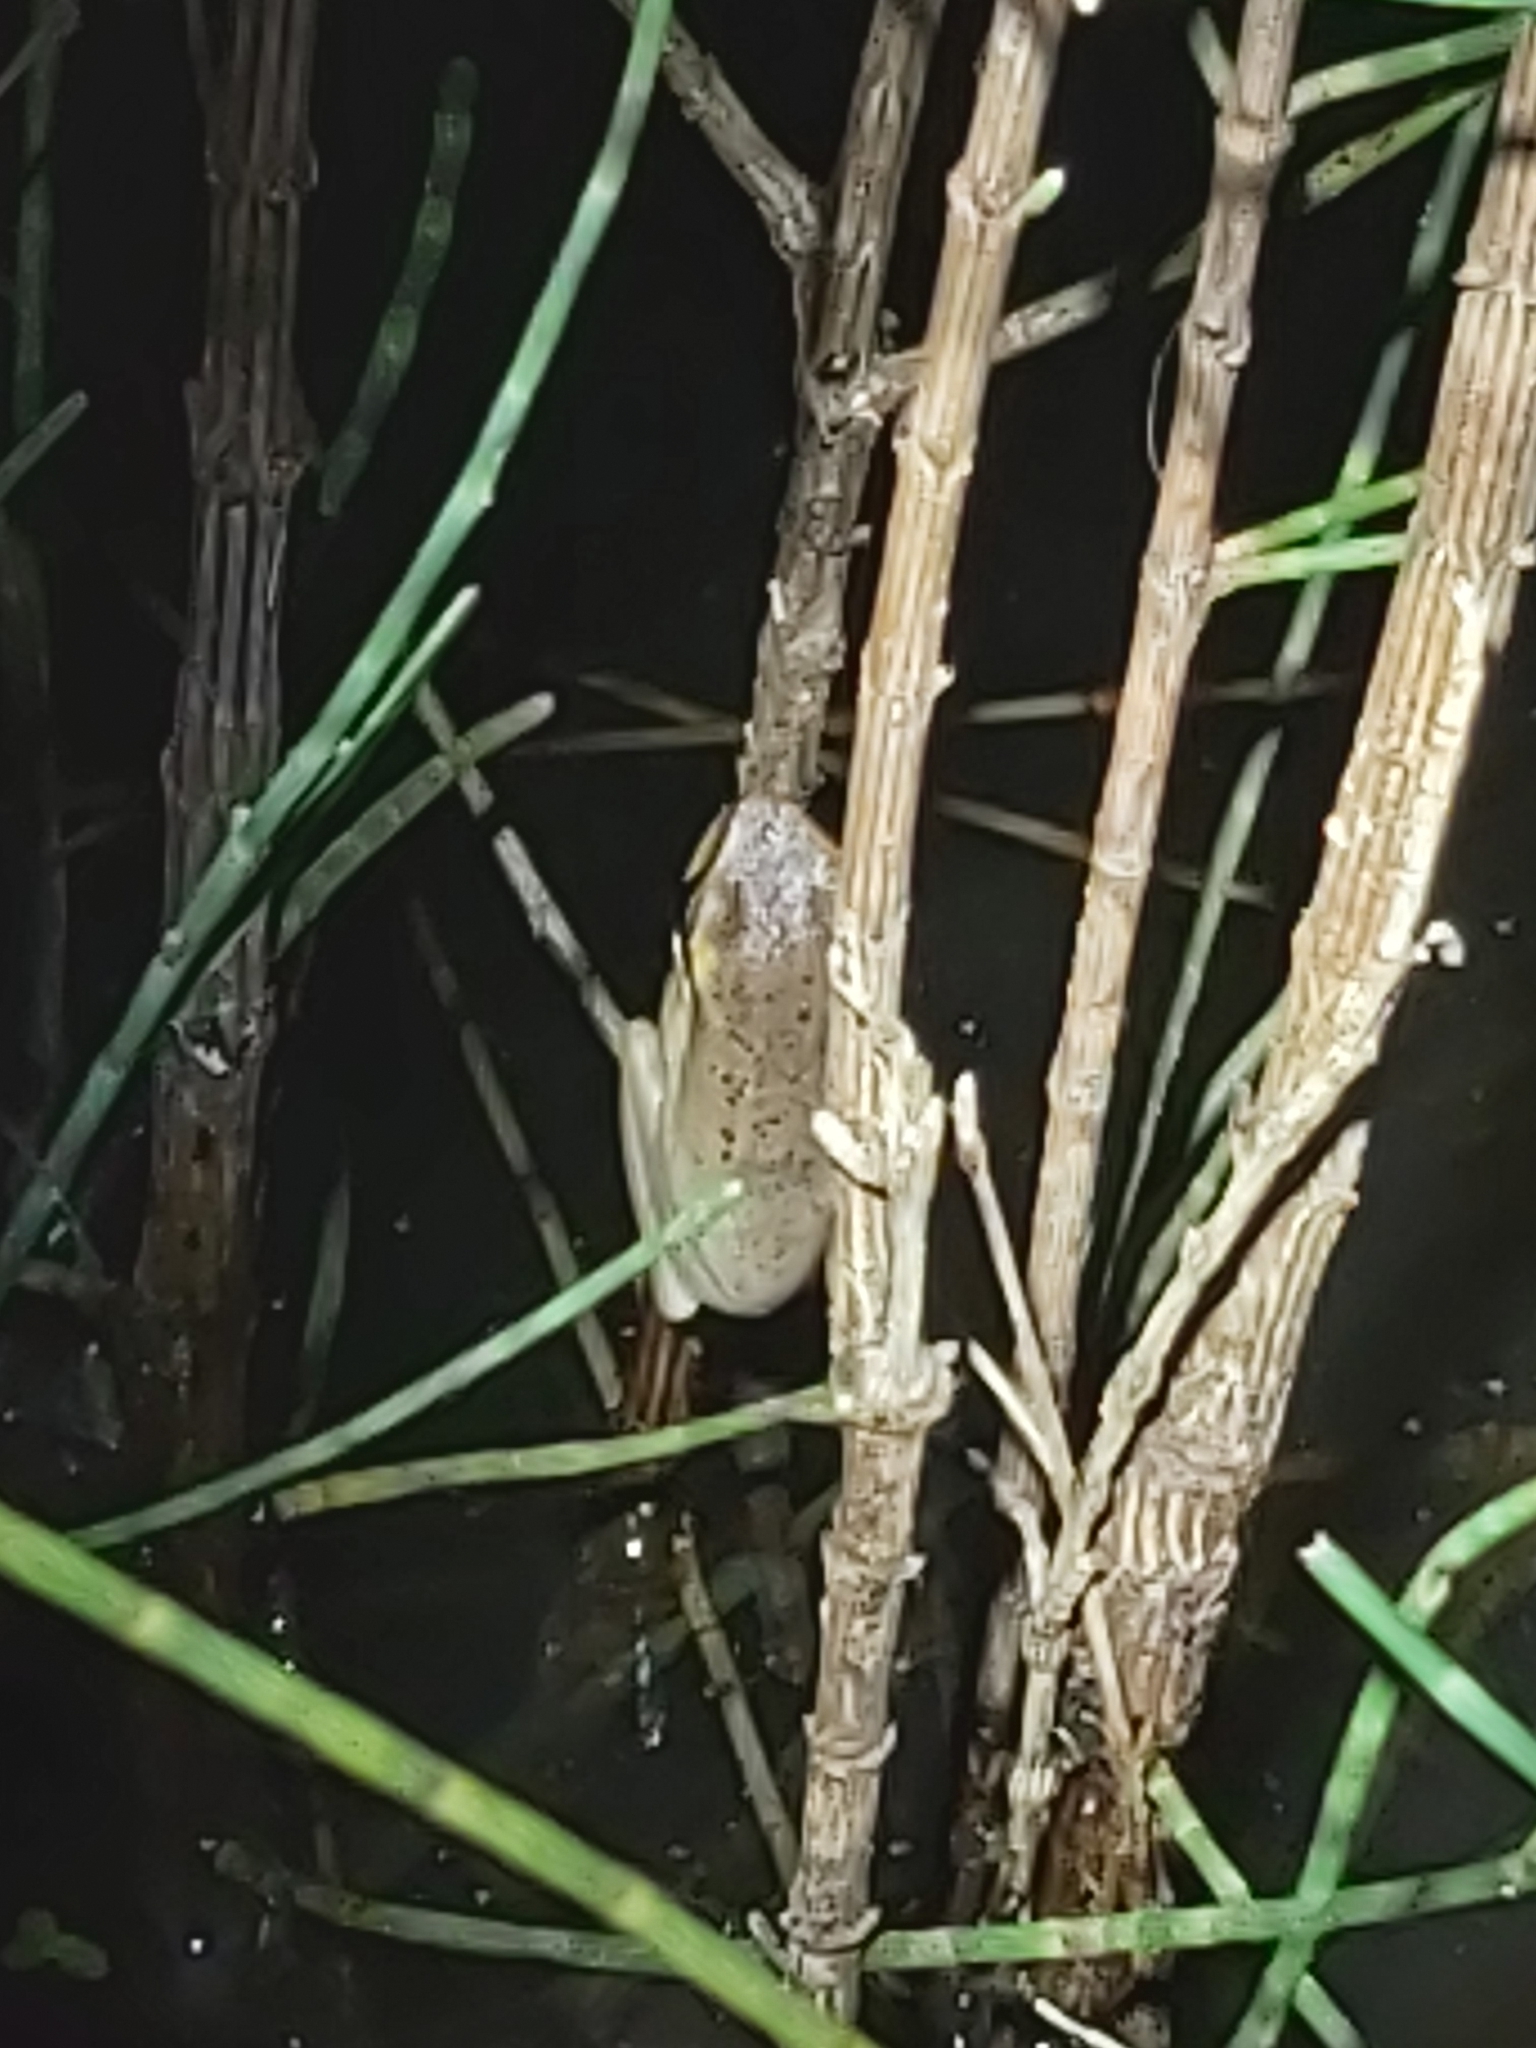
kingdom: Animalia
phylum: Chordata
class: Amphibia
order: Anura
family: Pelodryadidae
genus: Litoria
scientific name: Litoria fallax
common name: Eastern dwarf treefrog
